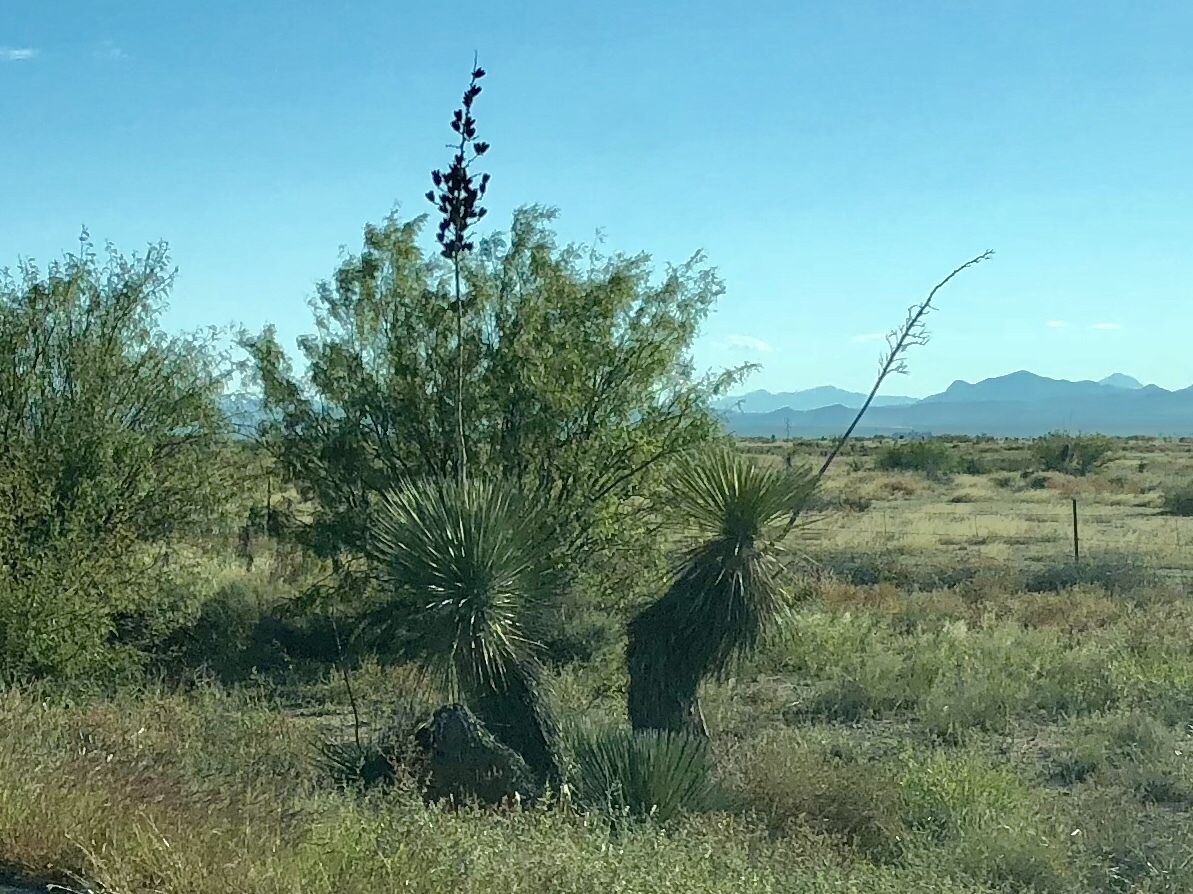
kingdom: Plantae
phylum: Tracheophyta
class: Liliopsida
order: Asparagales
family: Asparagaceae
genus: Yucca
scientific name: Yucca elata
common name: Palmella
